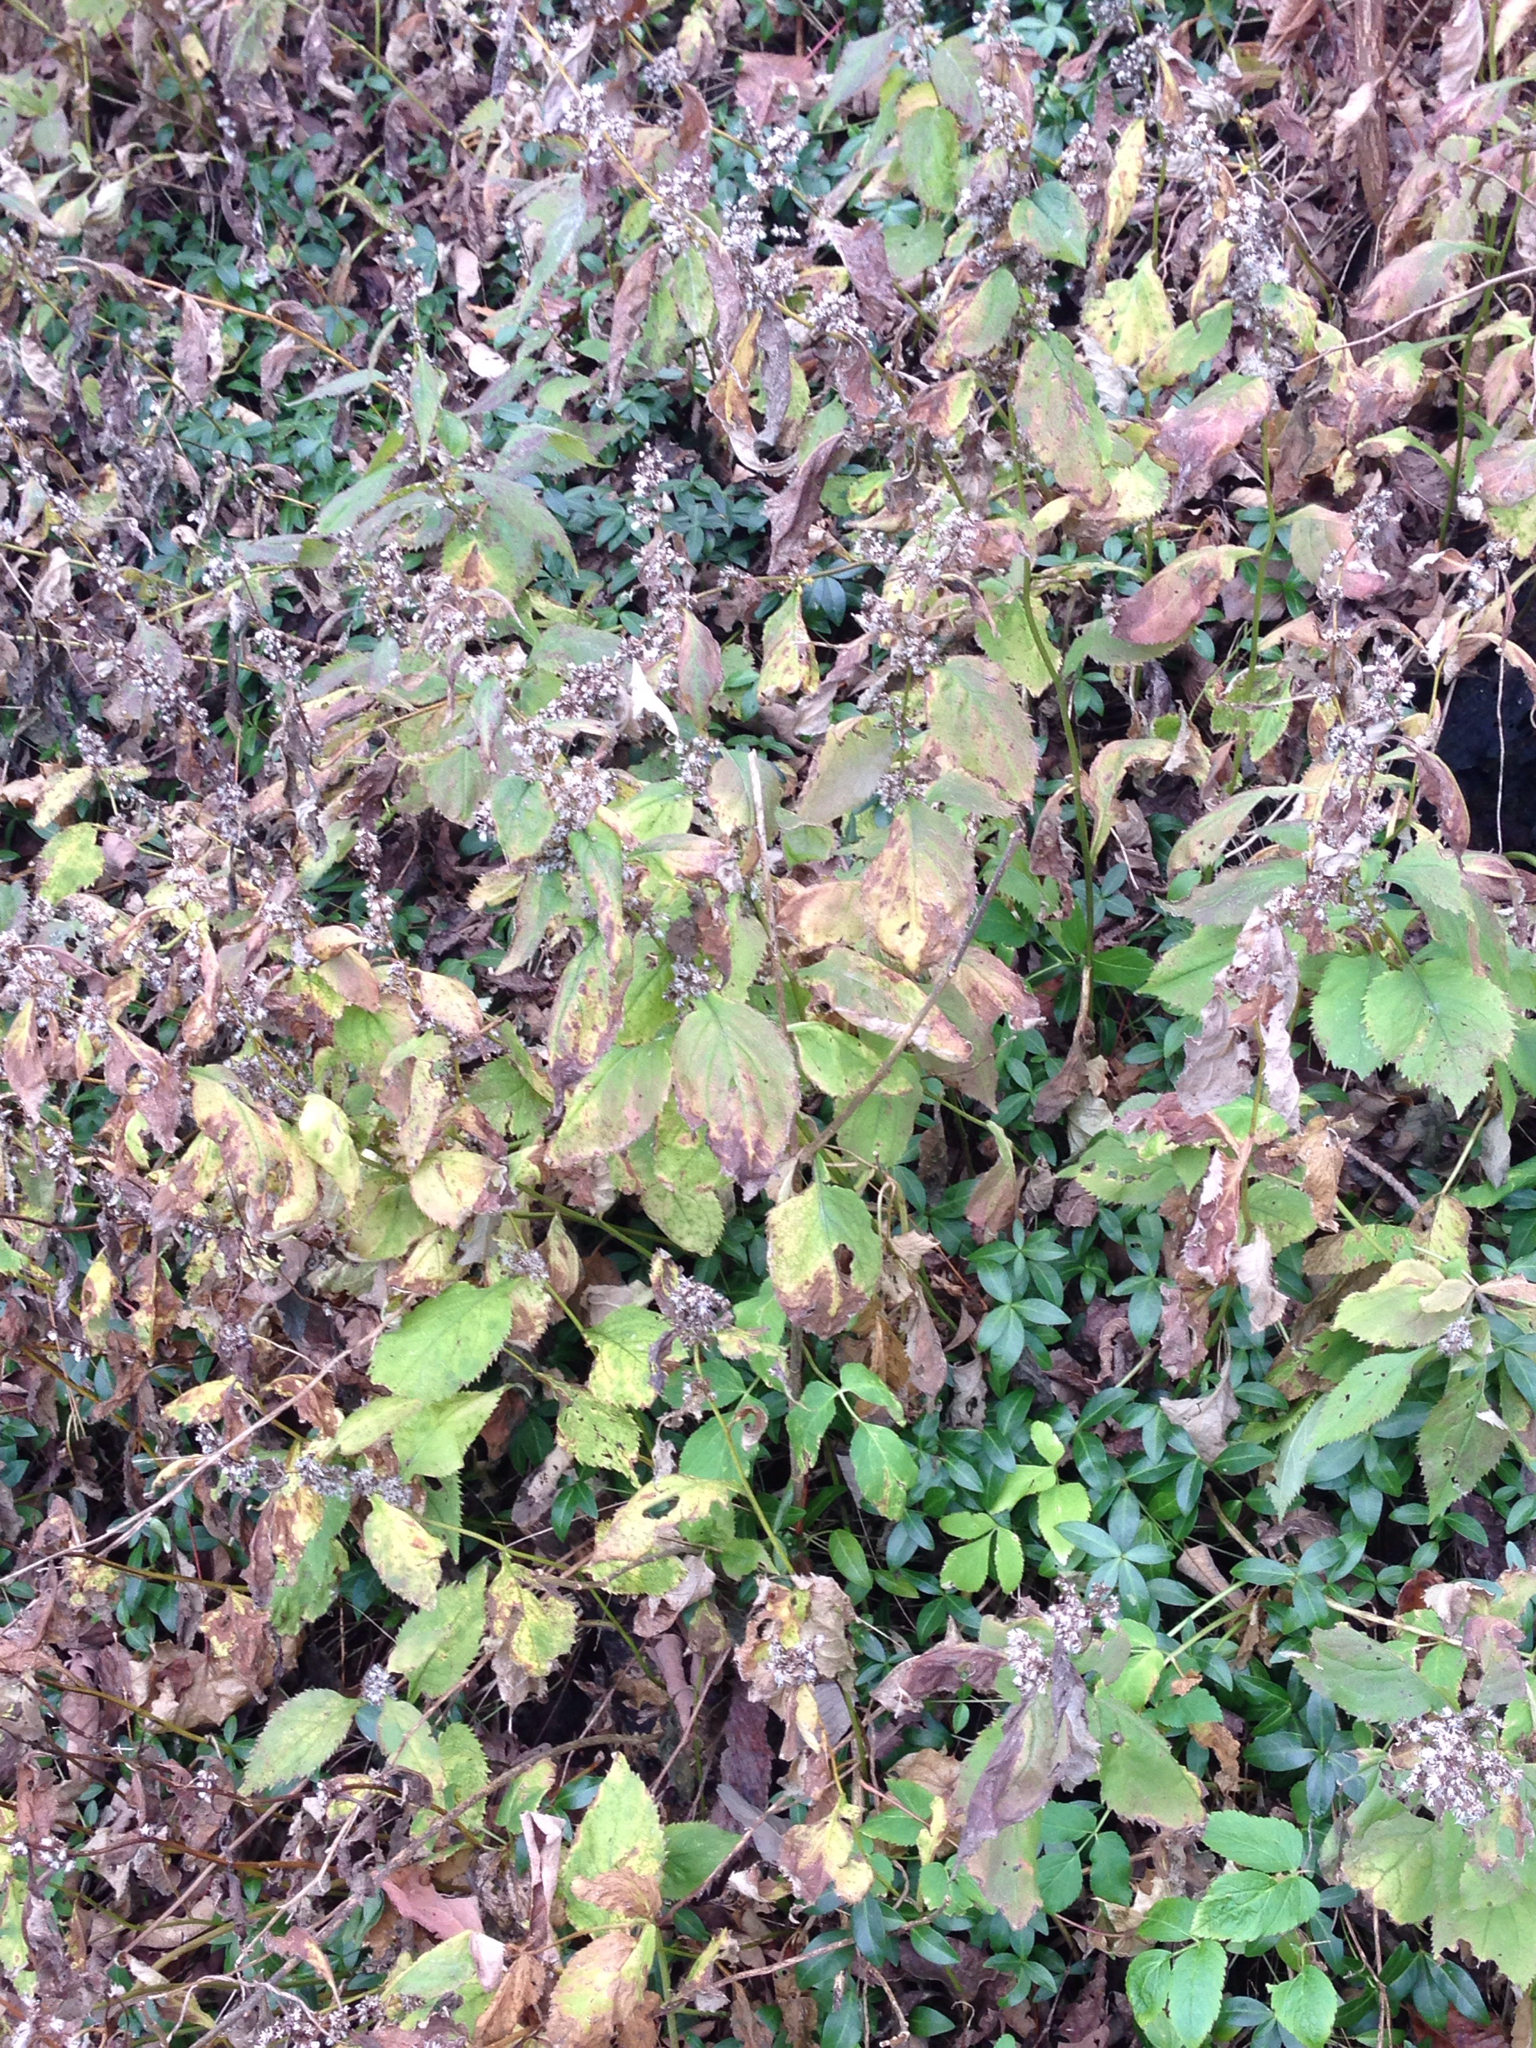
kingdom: Plantae
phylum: Tracheophyta
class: Magnoliopsida
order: Asterales
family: Asteraceae
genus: Solidago
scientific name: Solidago flexicaulis
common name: Zig-zag goldenrod
